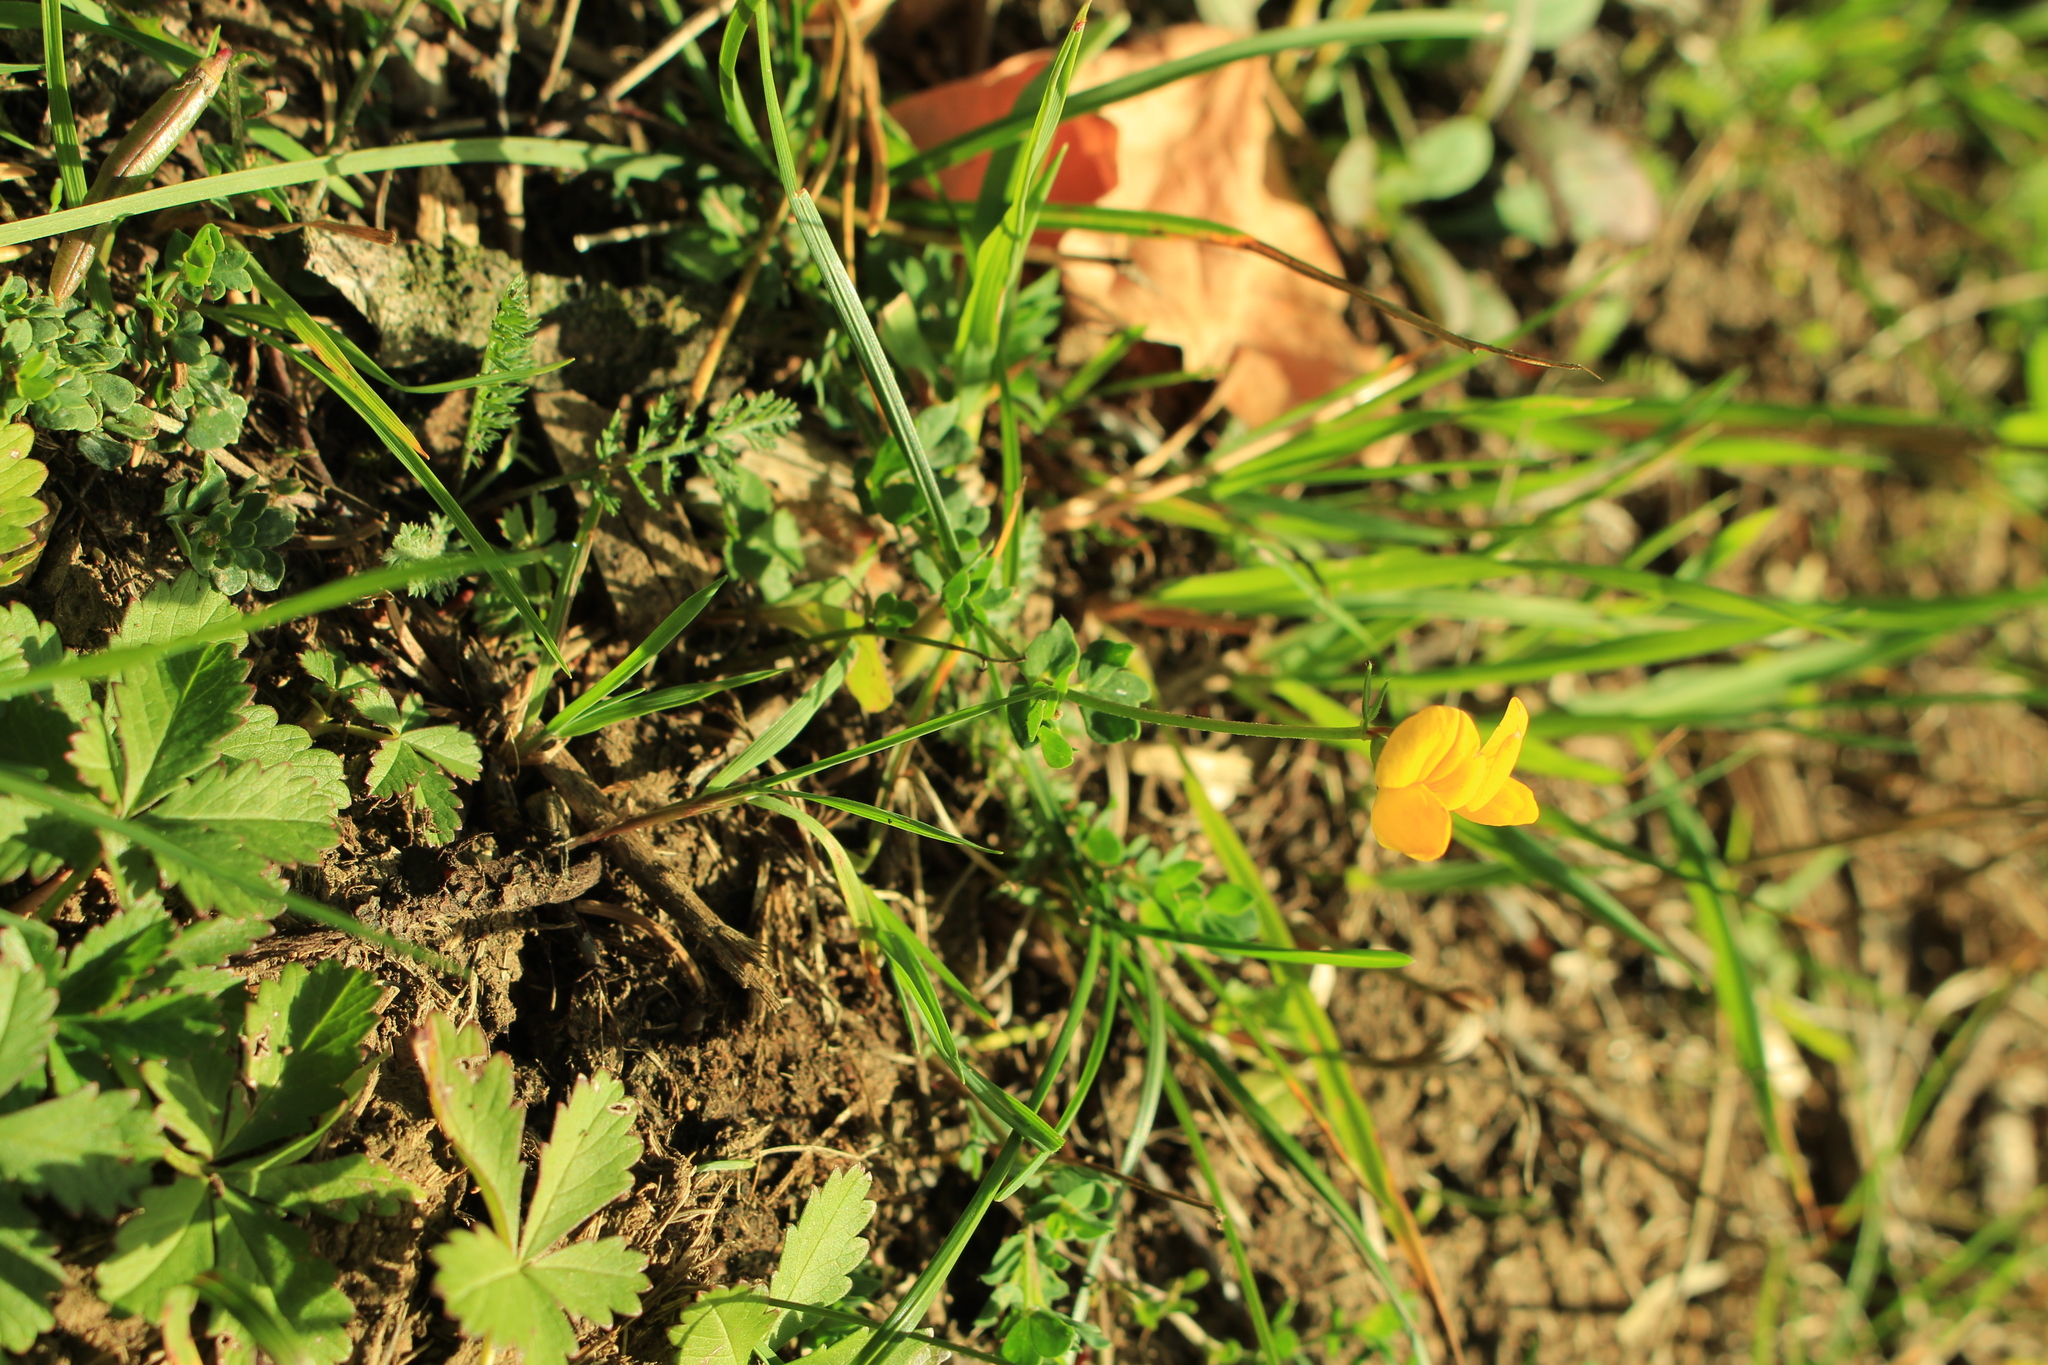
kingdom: Plantae
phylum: Tracheophyta
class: Magnoliopsida
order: Fabales
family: Fabaceae
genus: Lotus
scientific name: Lotus corniculatus
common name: Common bird's-foot-trefoil
